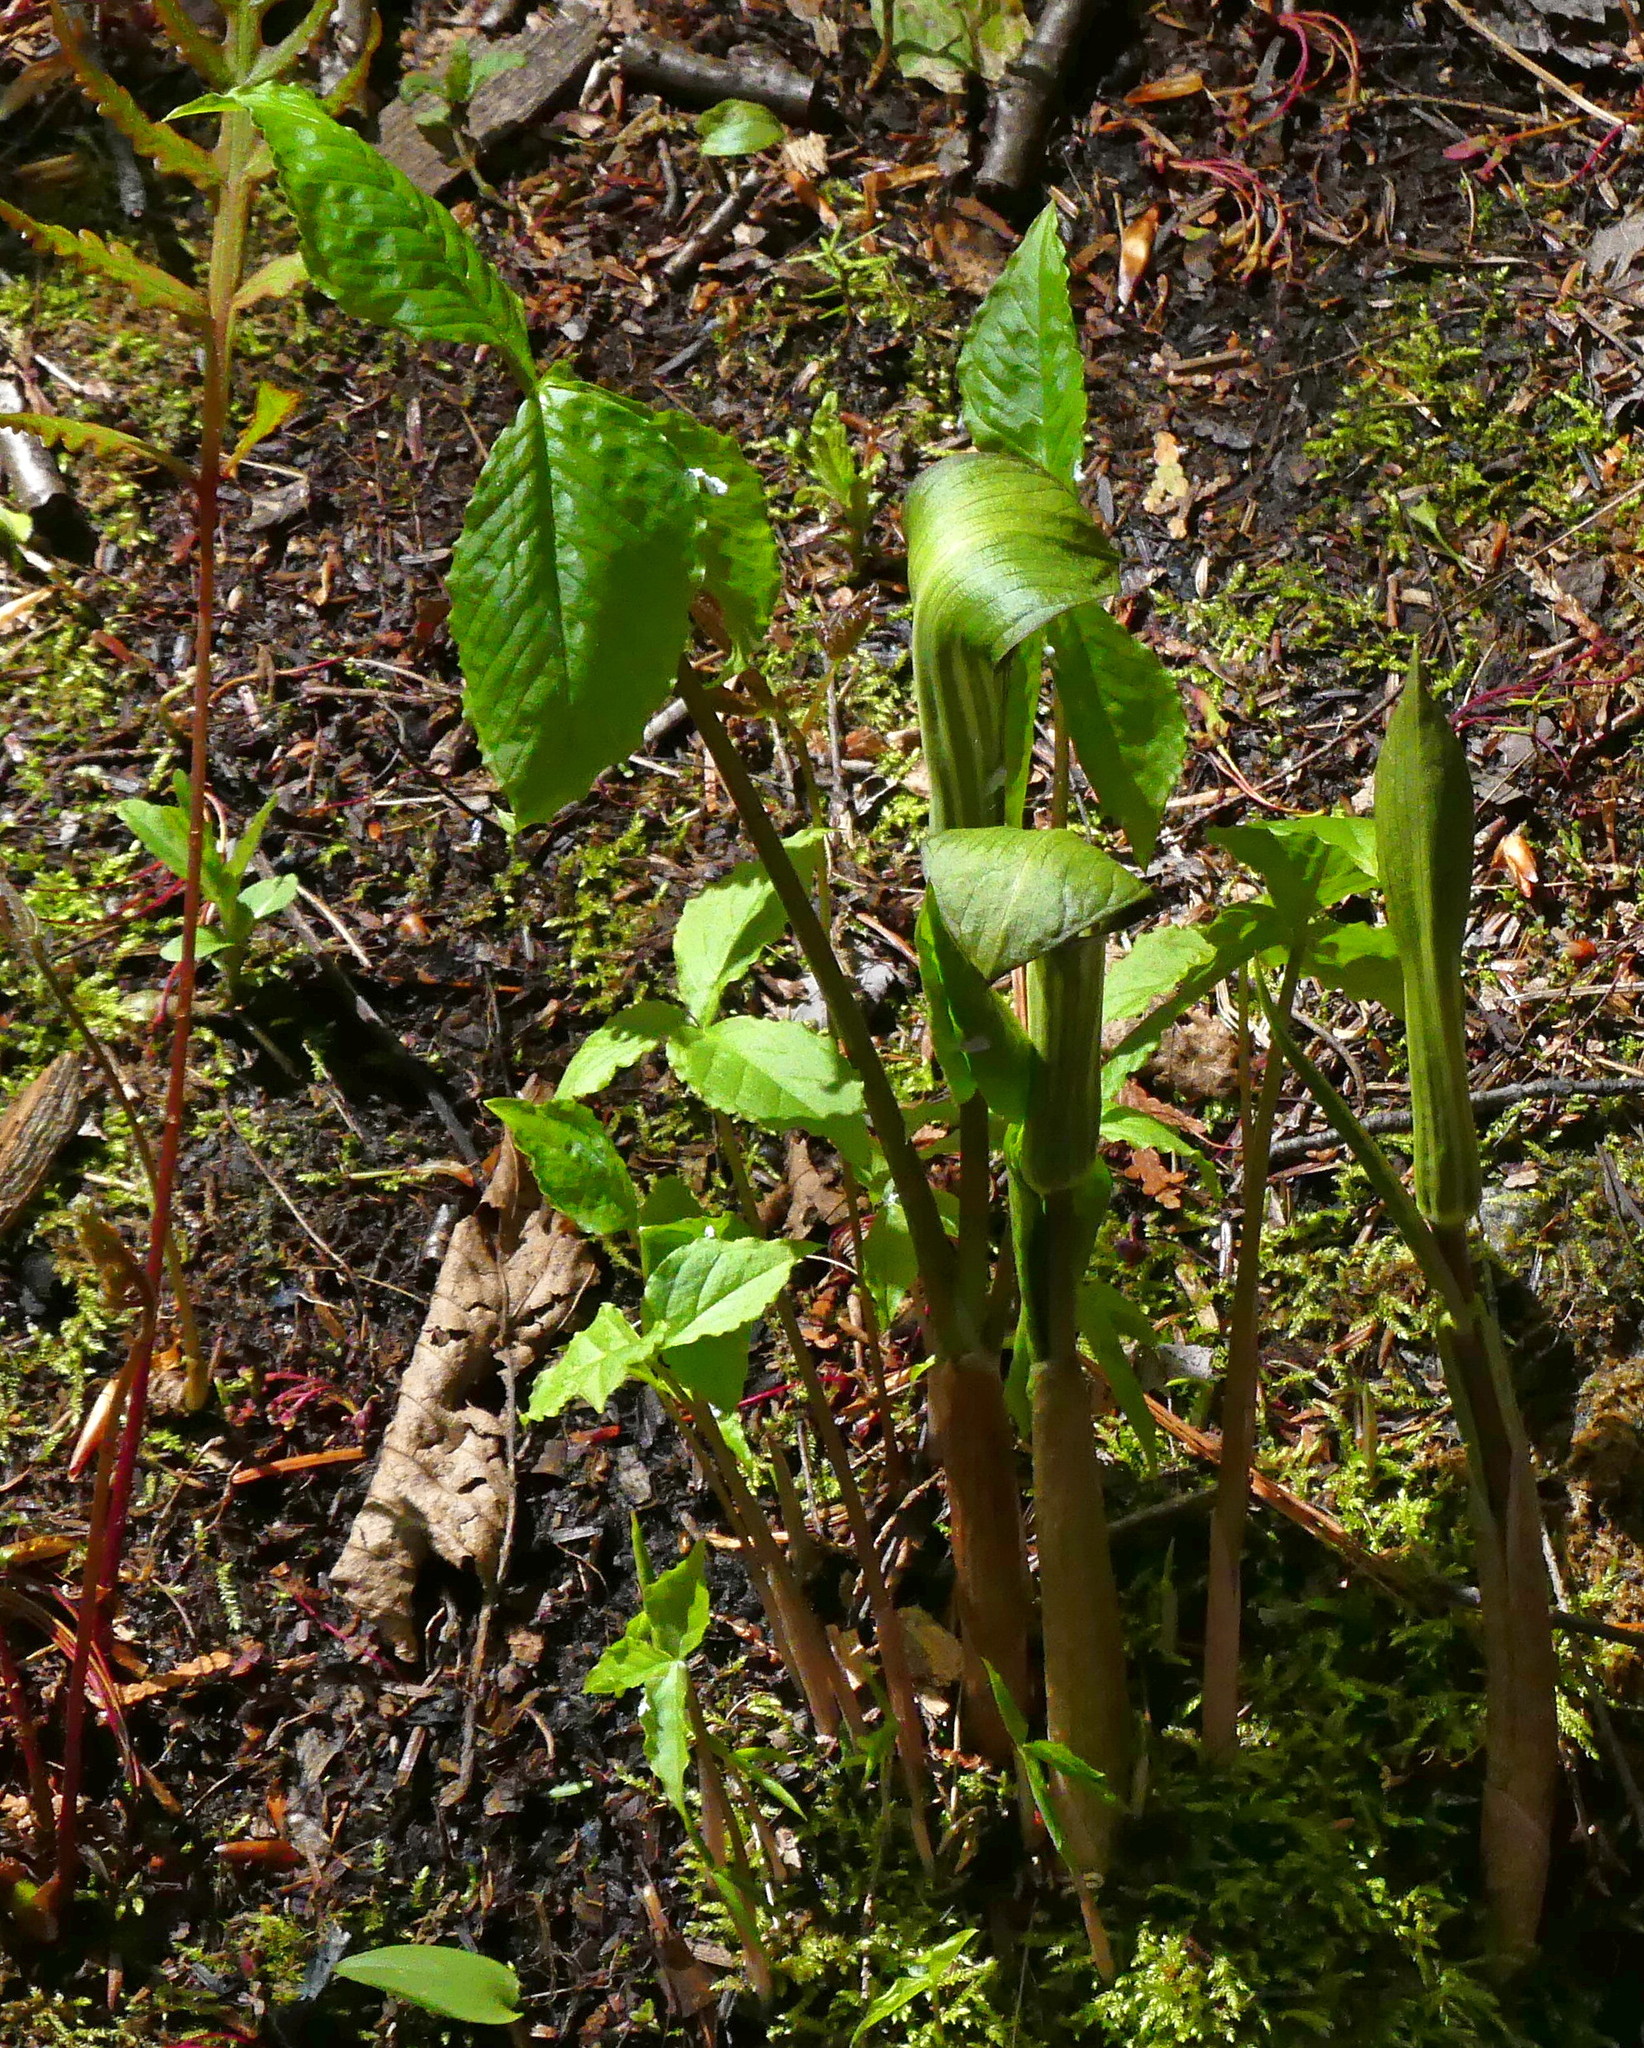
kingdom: Plantae
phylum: Tracheophyta
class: Liliopsida
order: Alismatales
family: Araceae
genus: Arisaema
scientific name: Arisaema triphyllum
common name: Jack-in-the-pulpit
